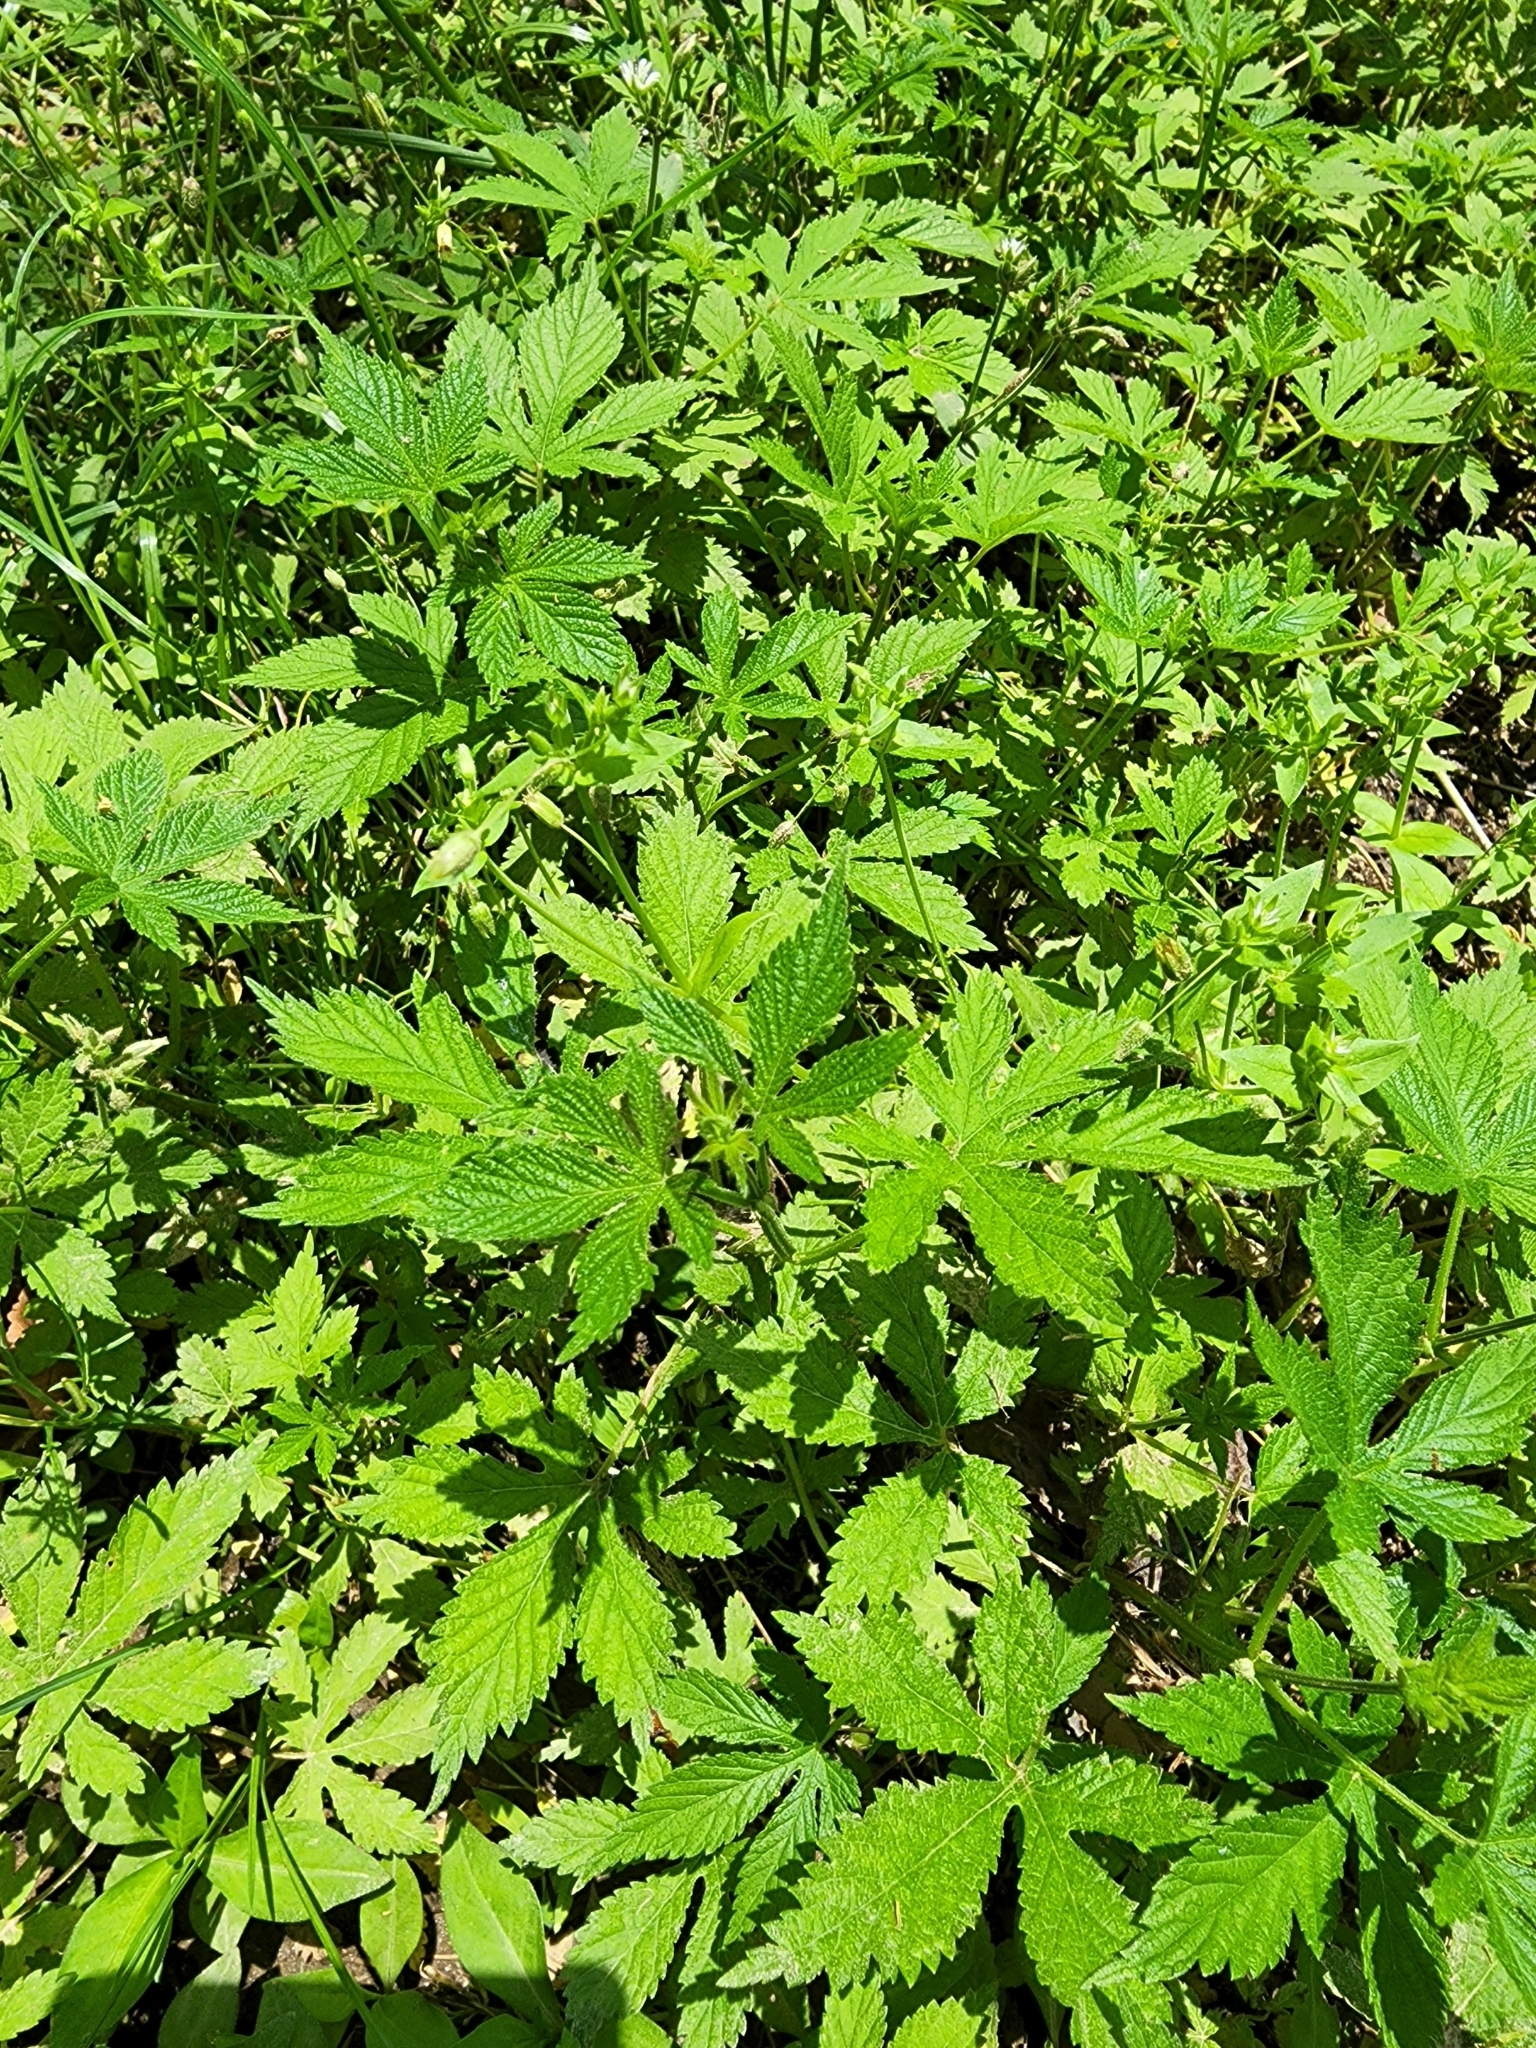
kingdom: Plantae
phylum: Tracheophyta
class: Magnoliopsida
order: Rosales
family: Cannabaceae
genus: Humulus
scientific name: Humulus scandens
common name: Japanese hop
